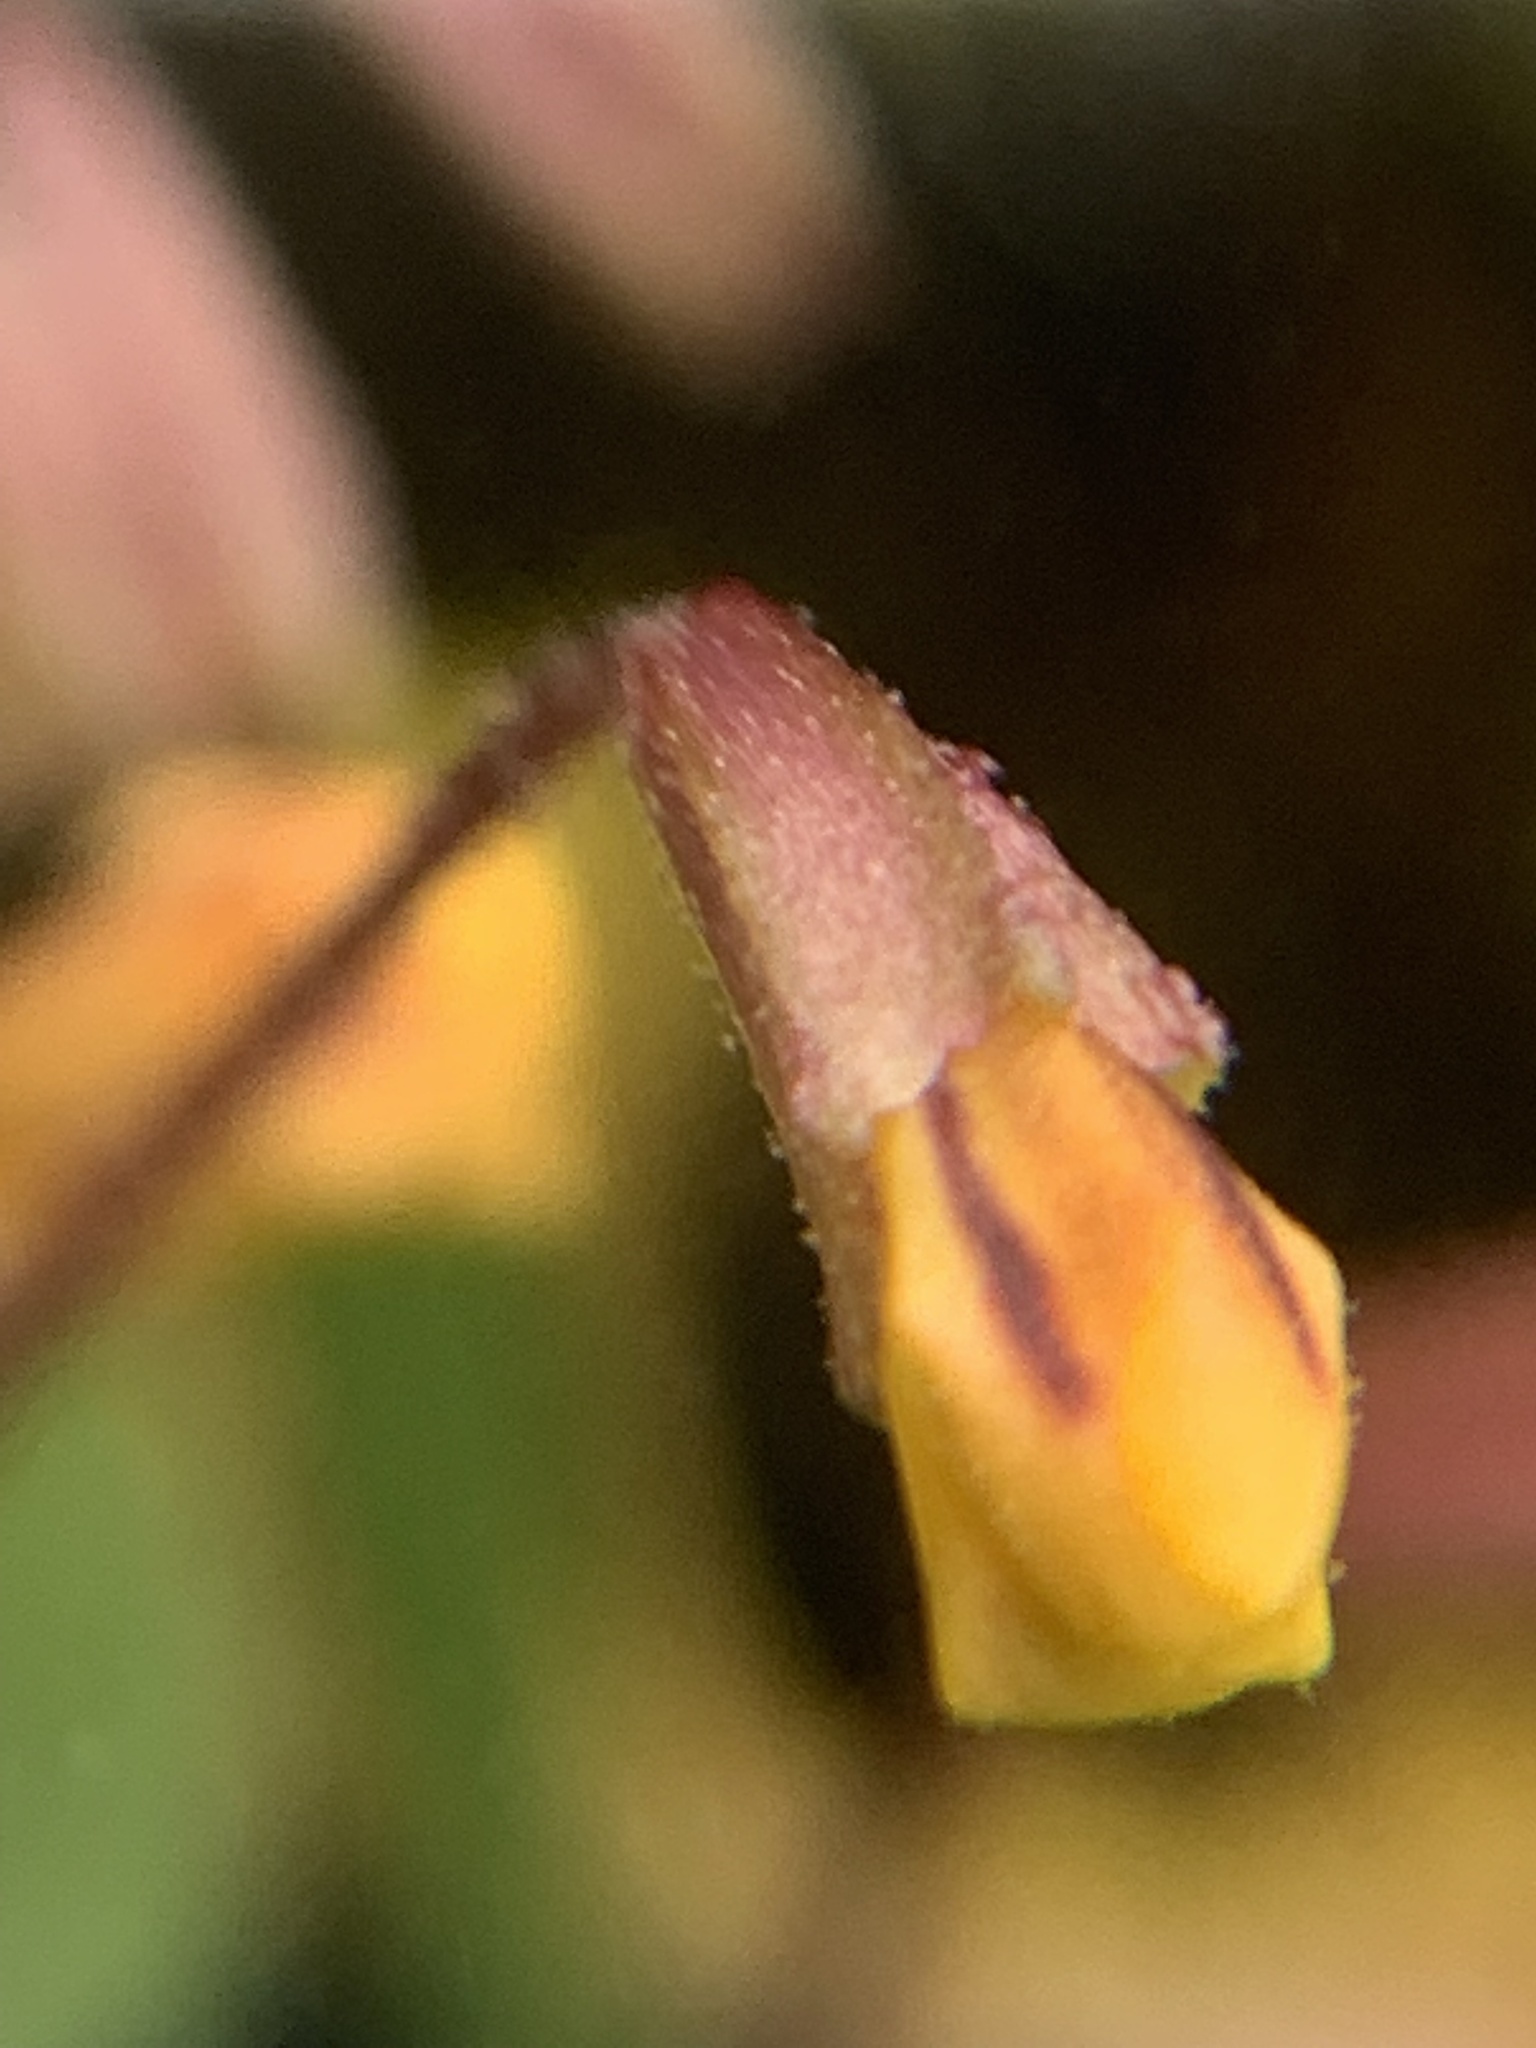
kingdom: Plantae
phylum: Tracheophyta
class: Magnoliopsida
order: Lamiales
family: Phrymaceae
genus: Erythranthe
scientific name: Erythranthe alsinoides
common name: Chickweed monkeyflower
